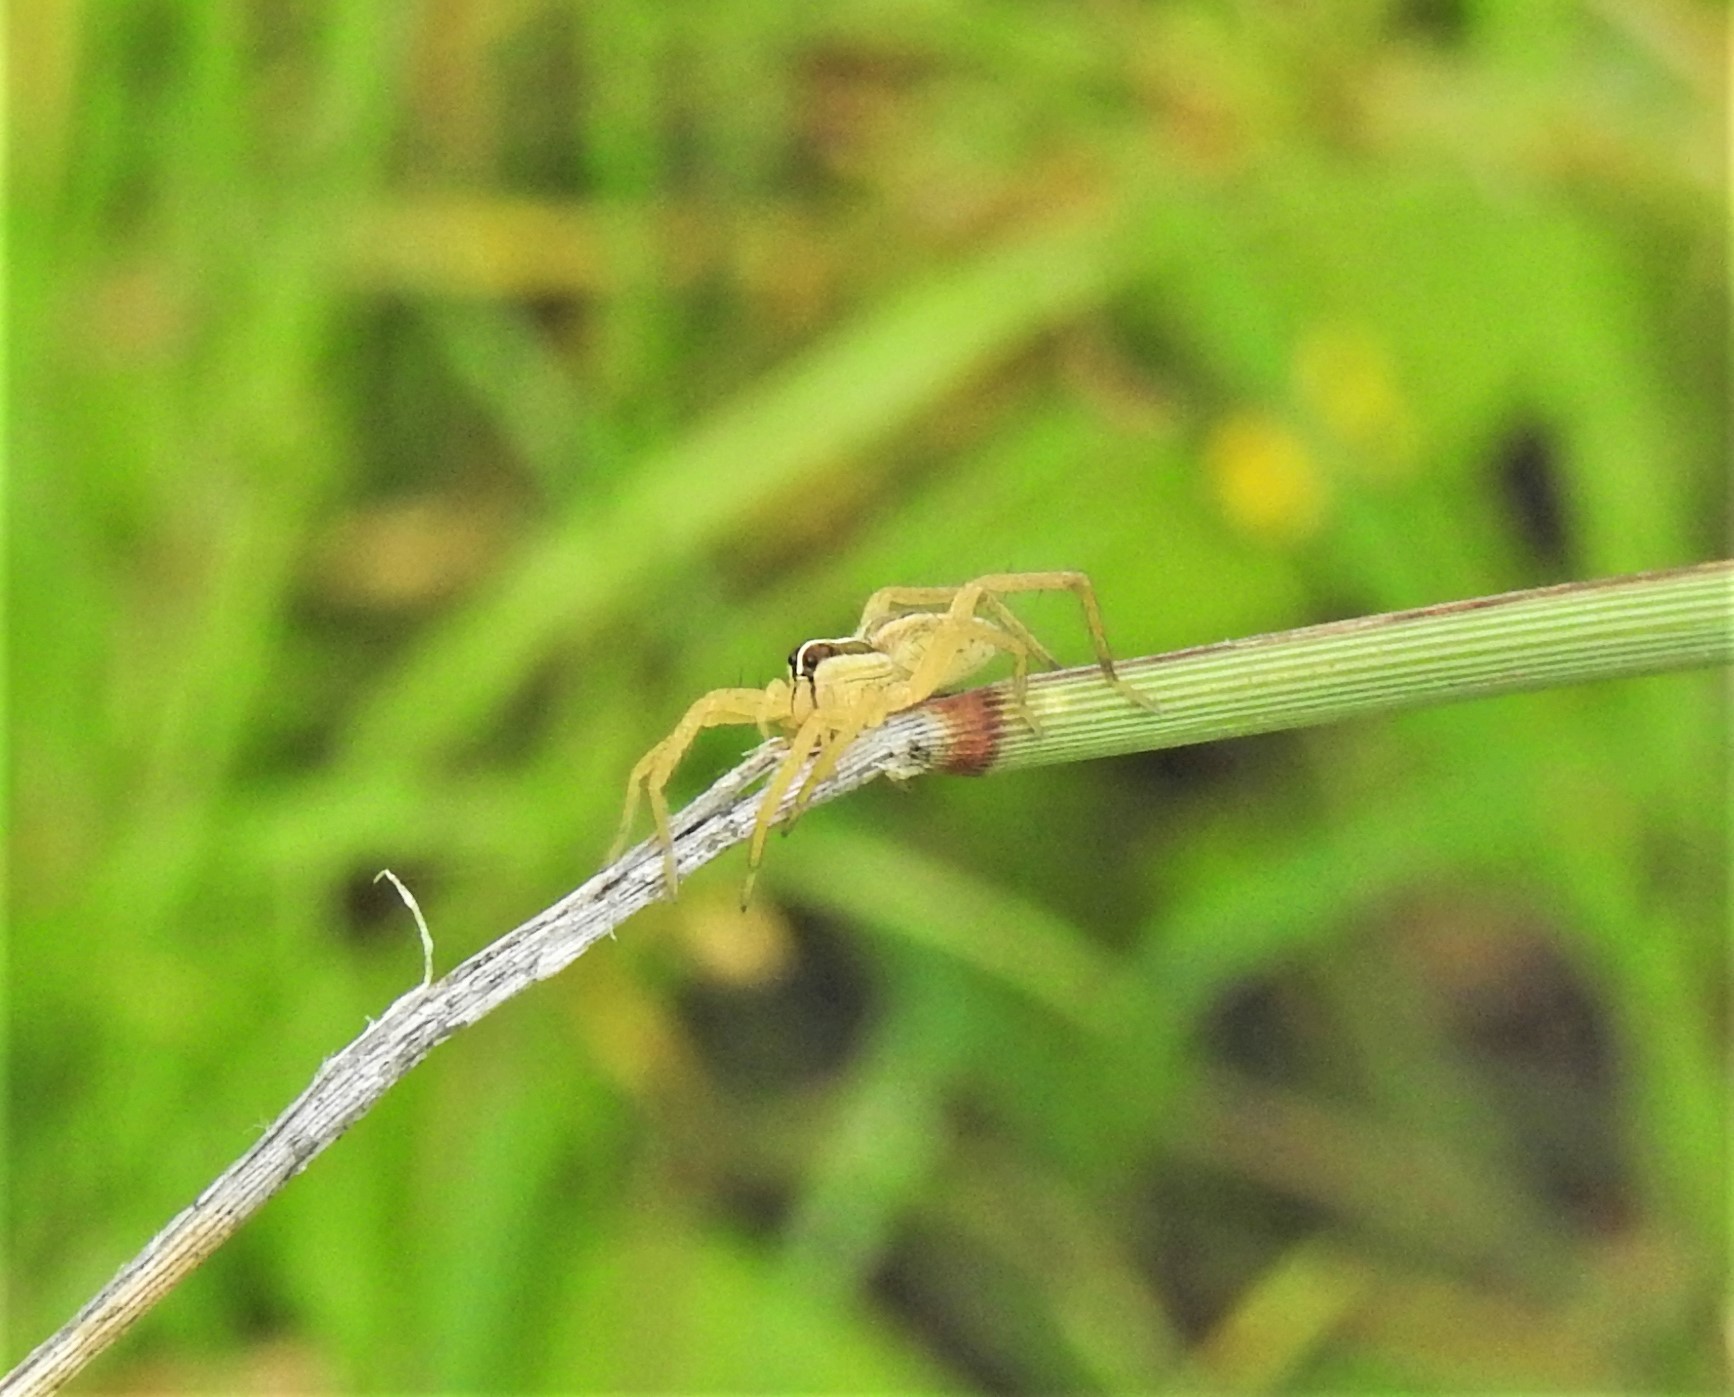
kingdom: Animalia
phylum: Arthropoda
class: Arachnida
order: Araneae
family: Lycosidae
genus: Rabidosa
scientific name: Rabidosa
